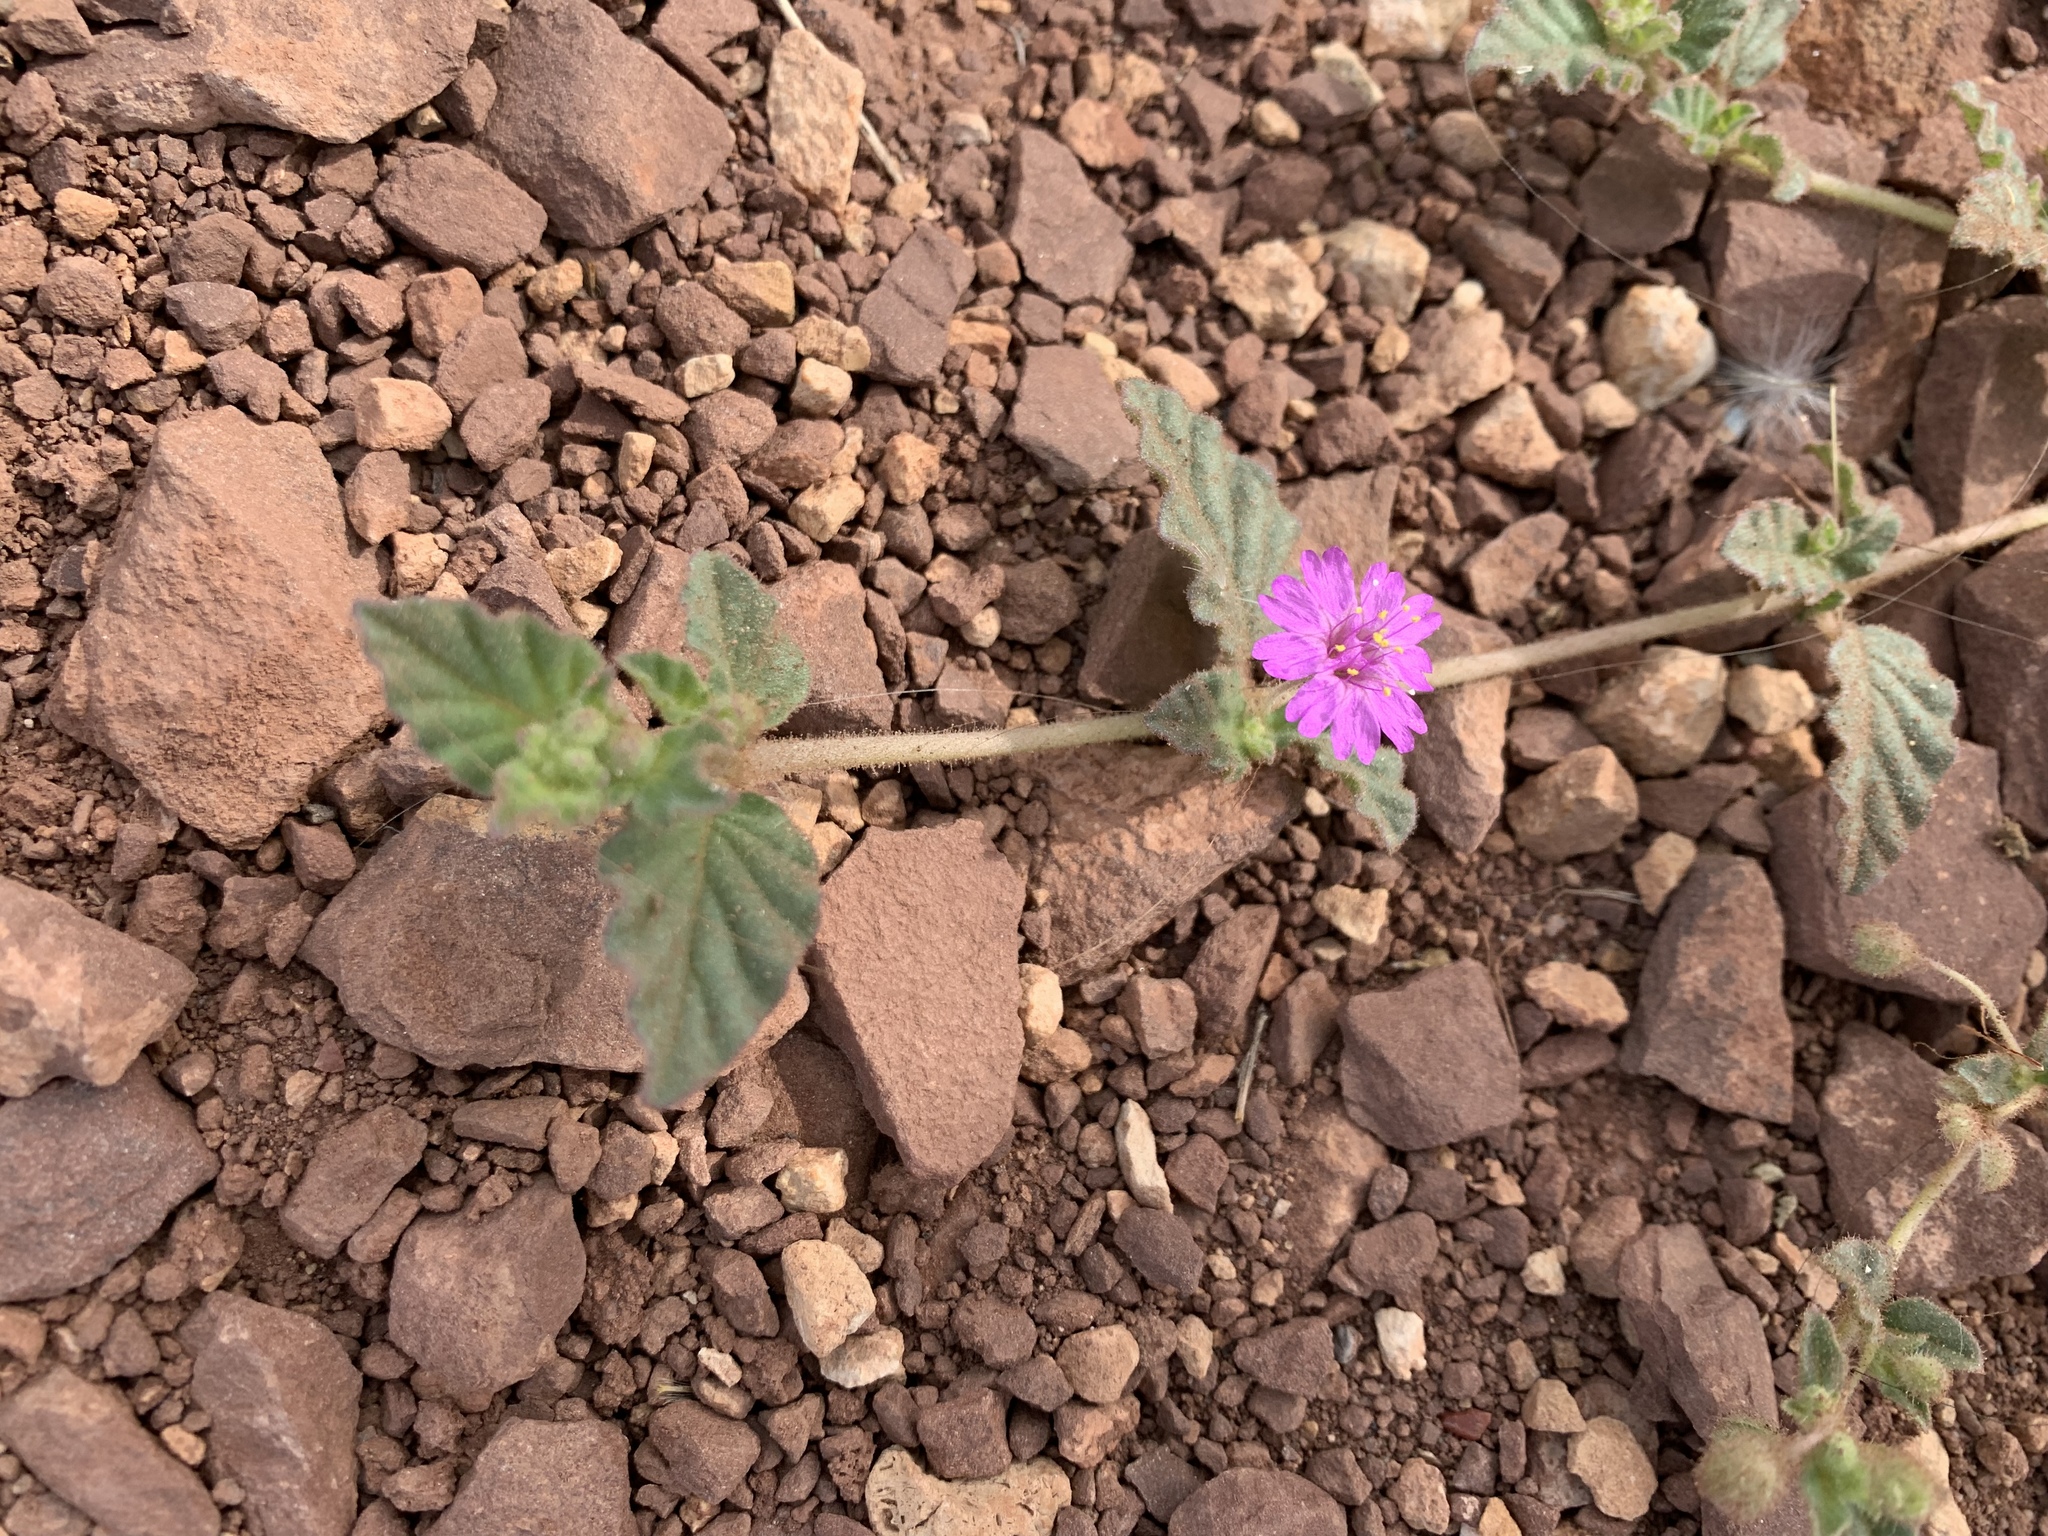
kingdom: Plantae
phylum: Tracheophyta
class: Magnoliopsida
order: Caryophyllales
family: Nyctaginaceae
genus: Allionia
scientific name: Allionia incarnata
